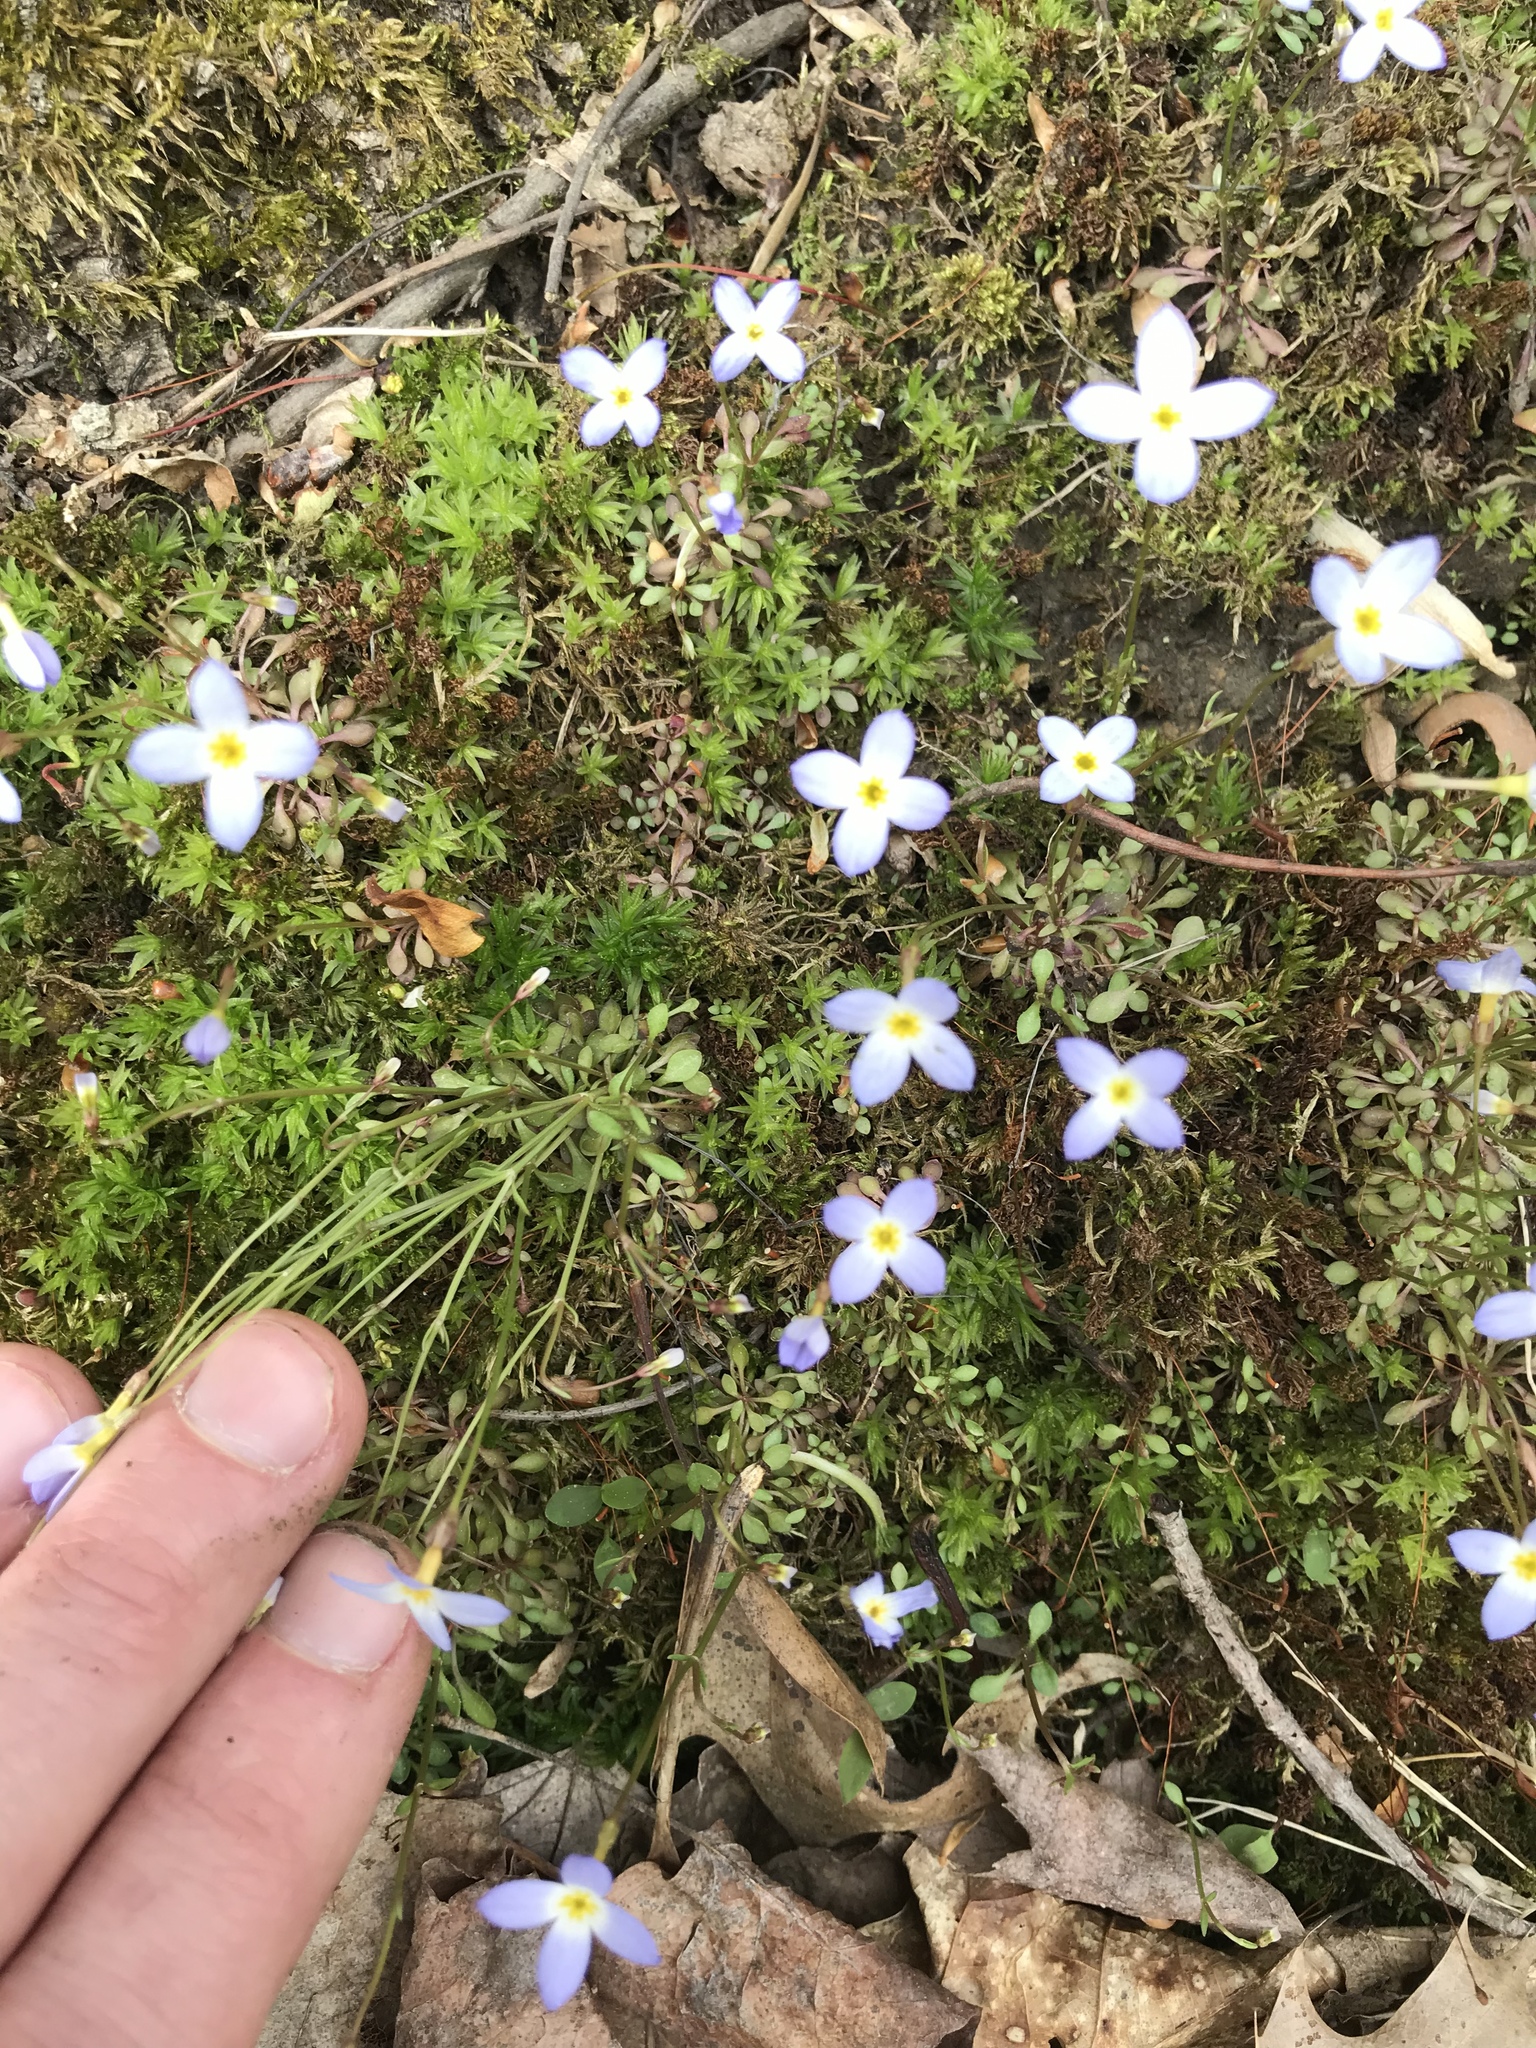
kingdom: Plantae
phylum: Tracheophyta
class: Magnoliopsida
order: Gentianales
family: Rubiaceae
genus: Houstonia
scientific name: Houstonia caerulea
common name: Bluets
